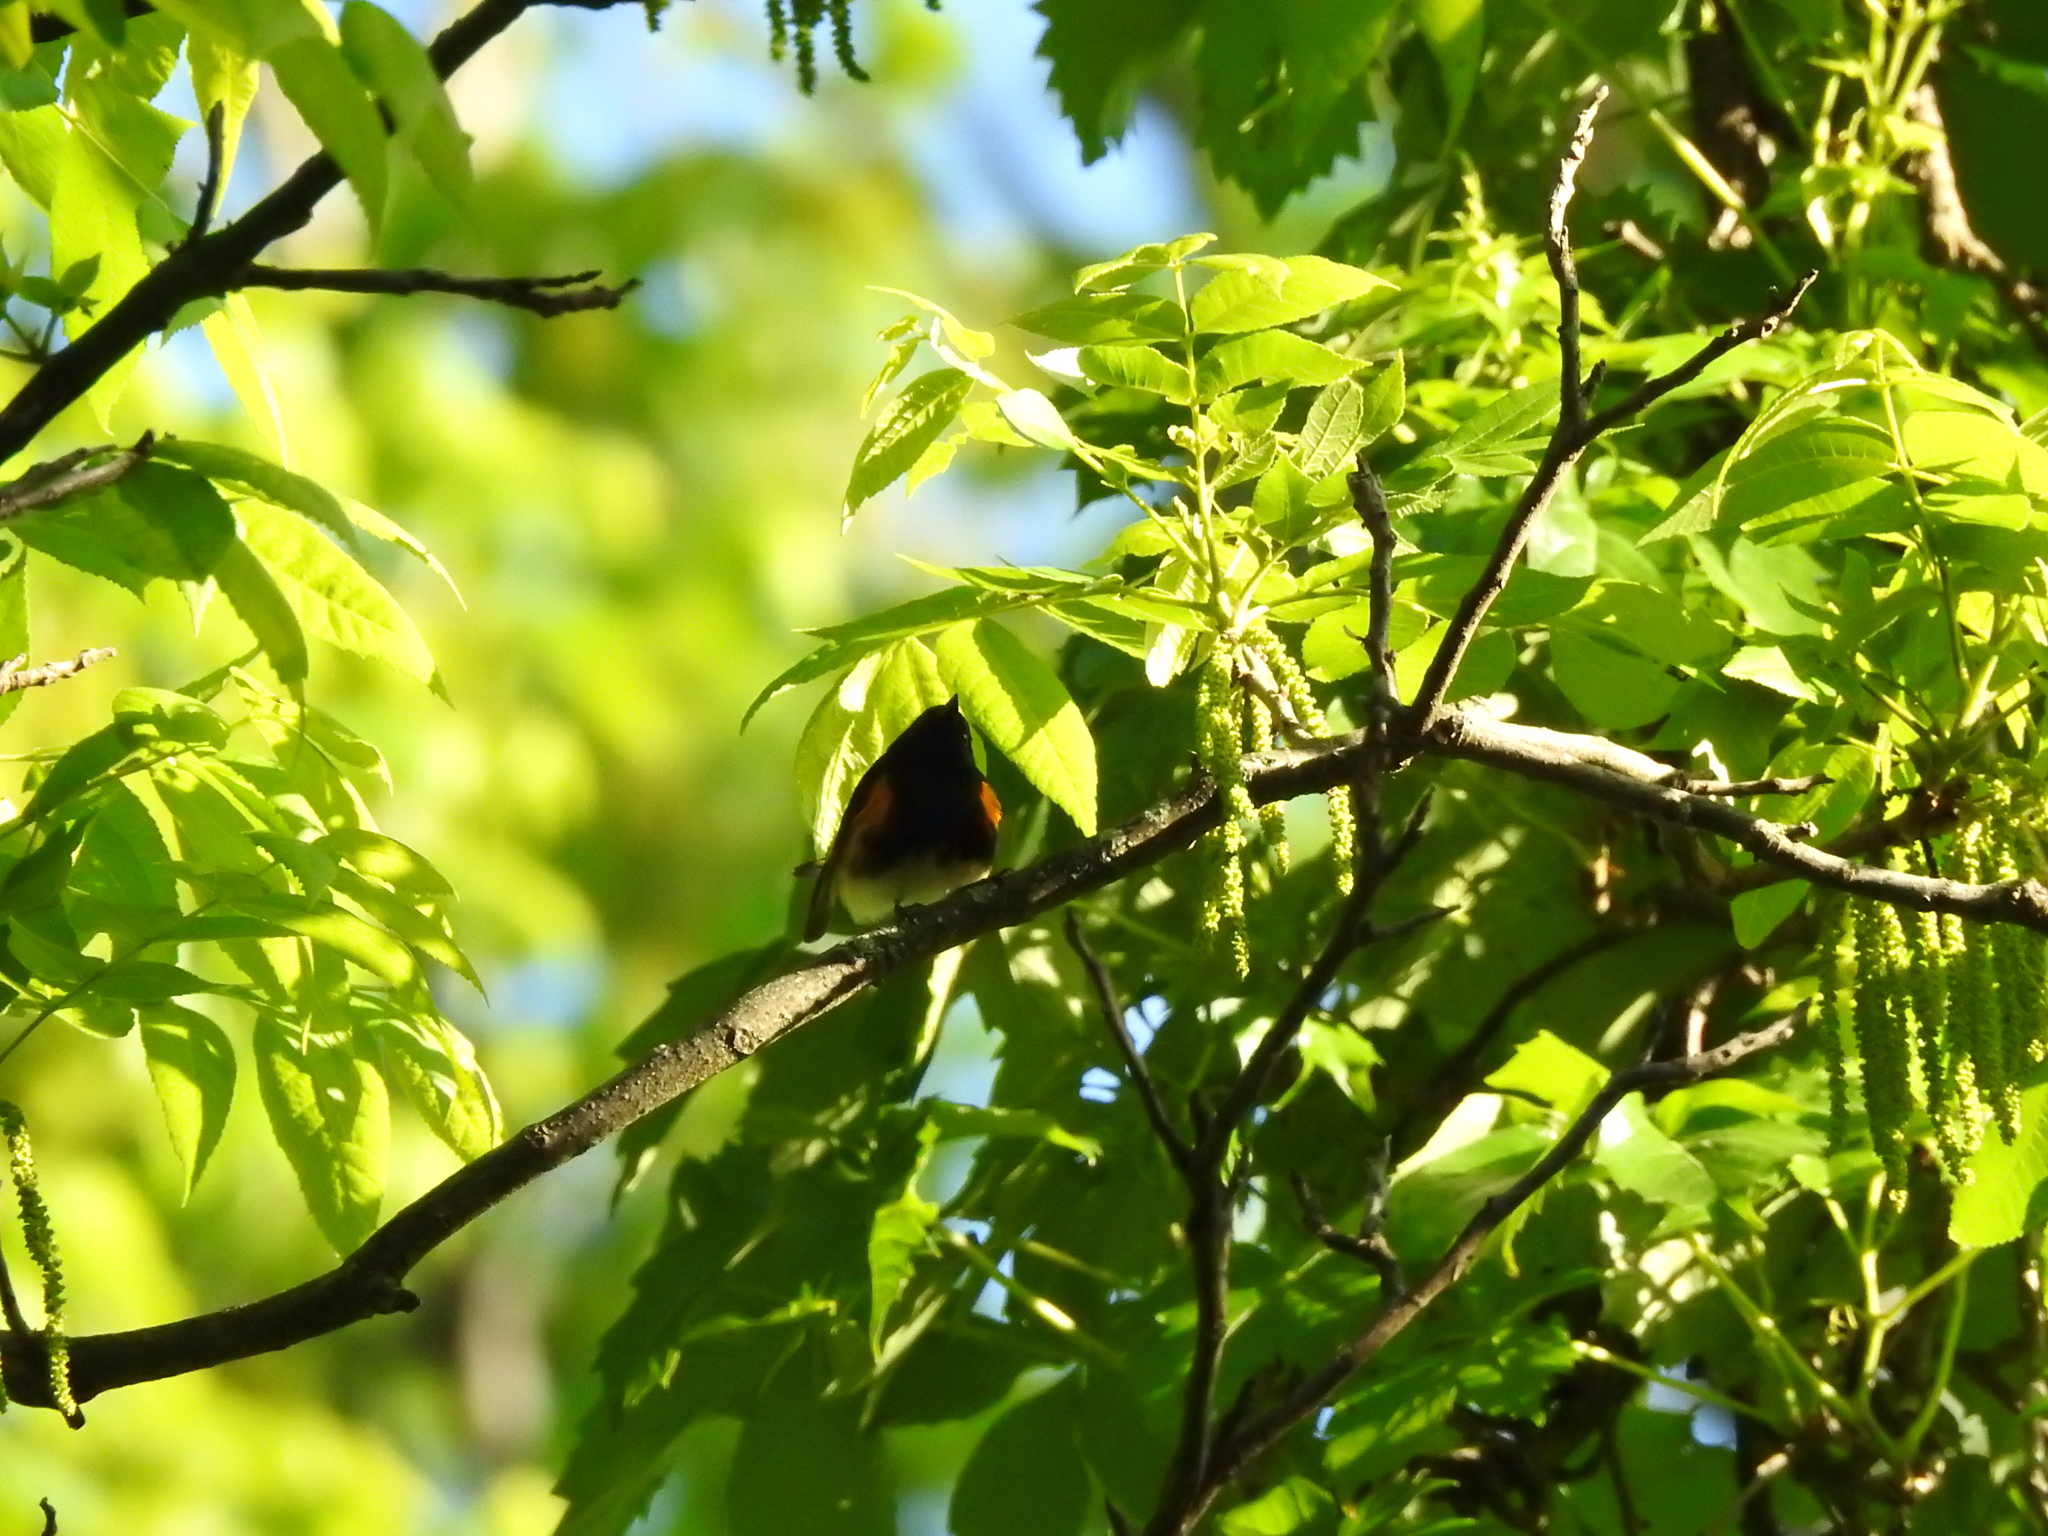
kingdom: Animalia
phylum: Chordata
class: Aves
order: Passeriformes
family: Parulidae
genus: Setophaga
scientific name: Setophaga ruticilla
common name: American redstart
